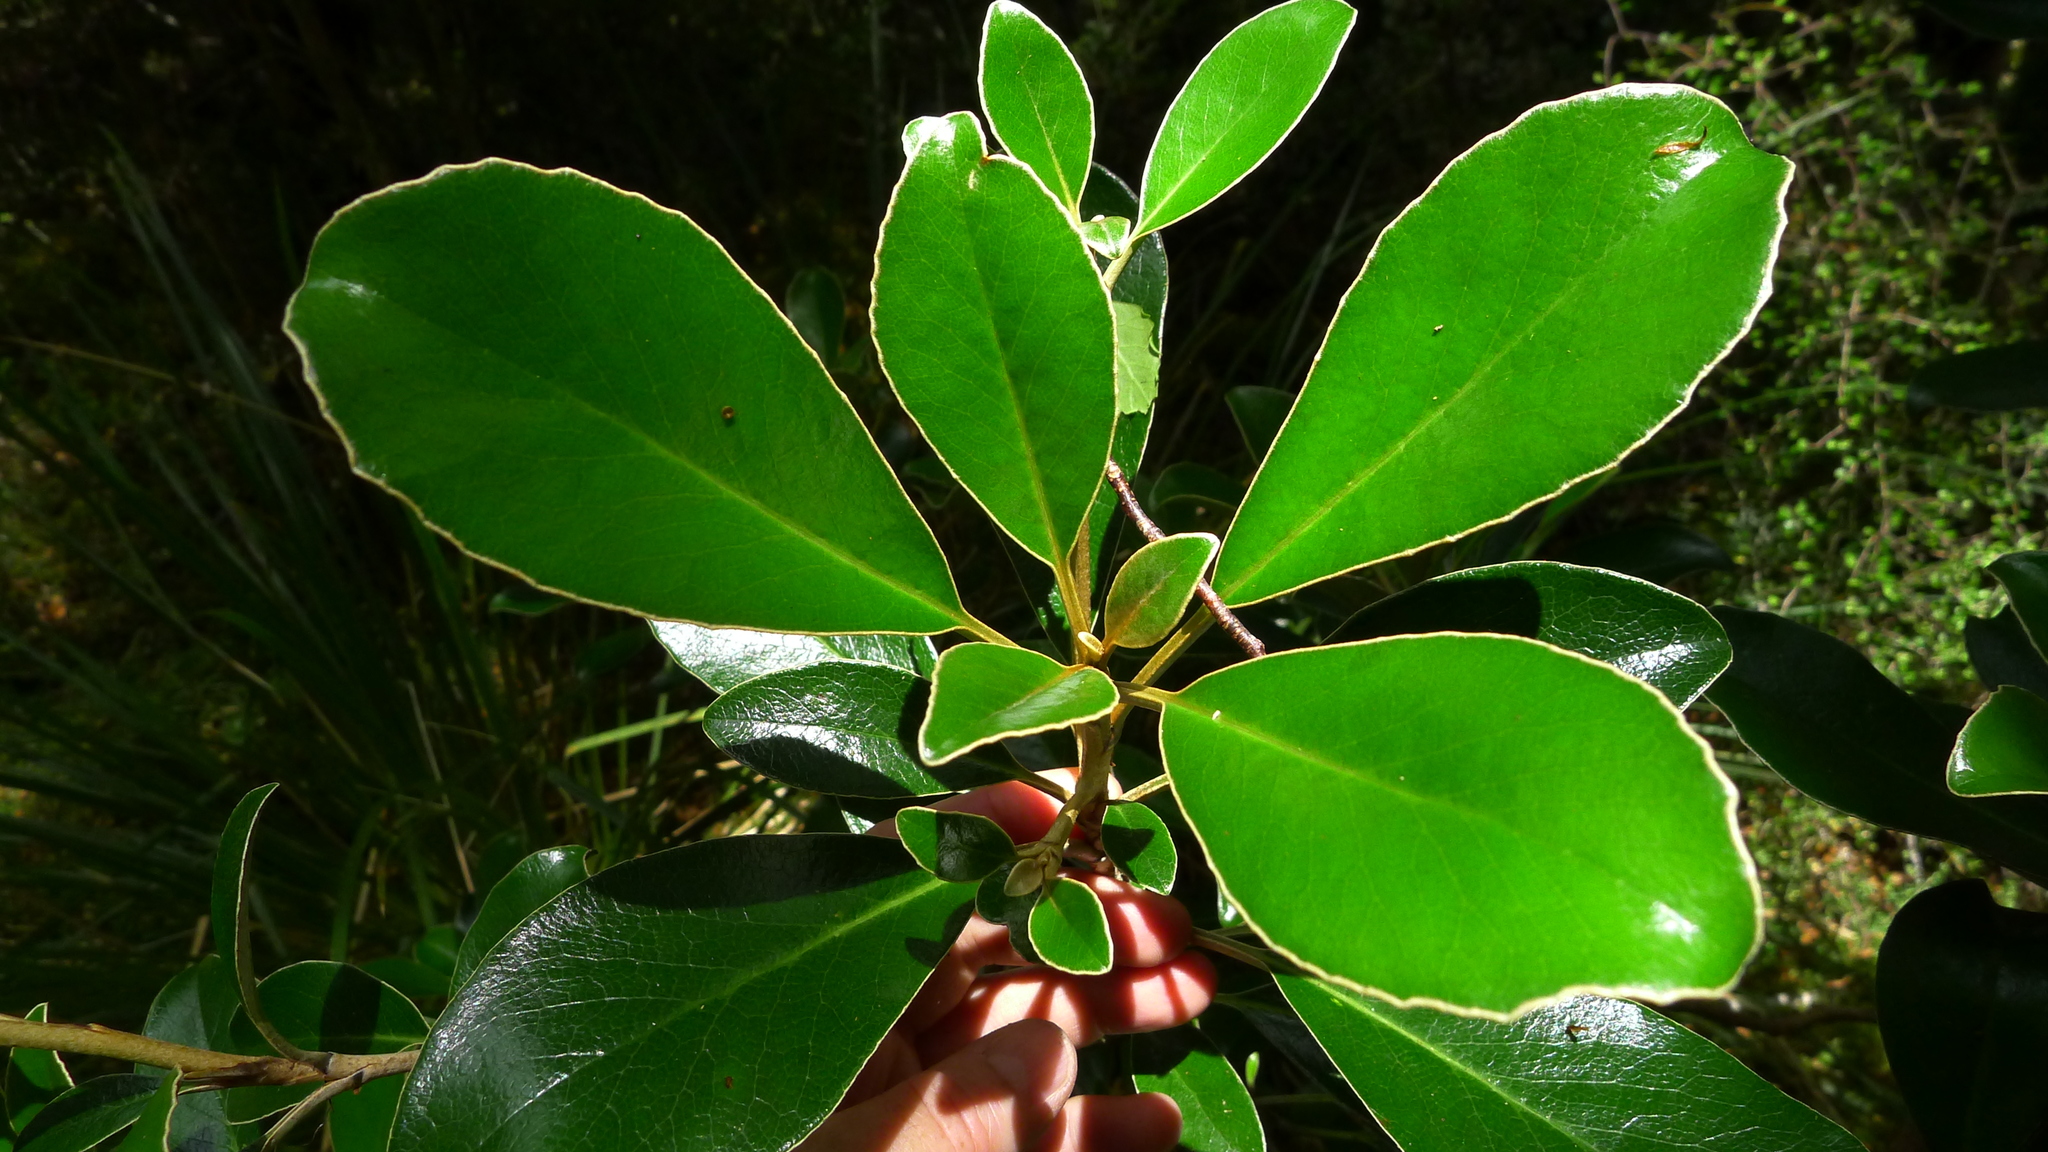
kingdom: Plantae
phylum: Tracheophyta
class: Magnoliopsida
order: Asterales
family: Asteraceae
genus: Brachyglottis
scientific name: Brachyglottis elaeagnifolia
